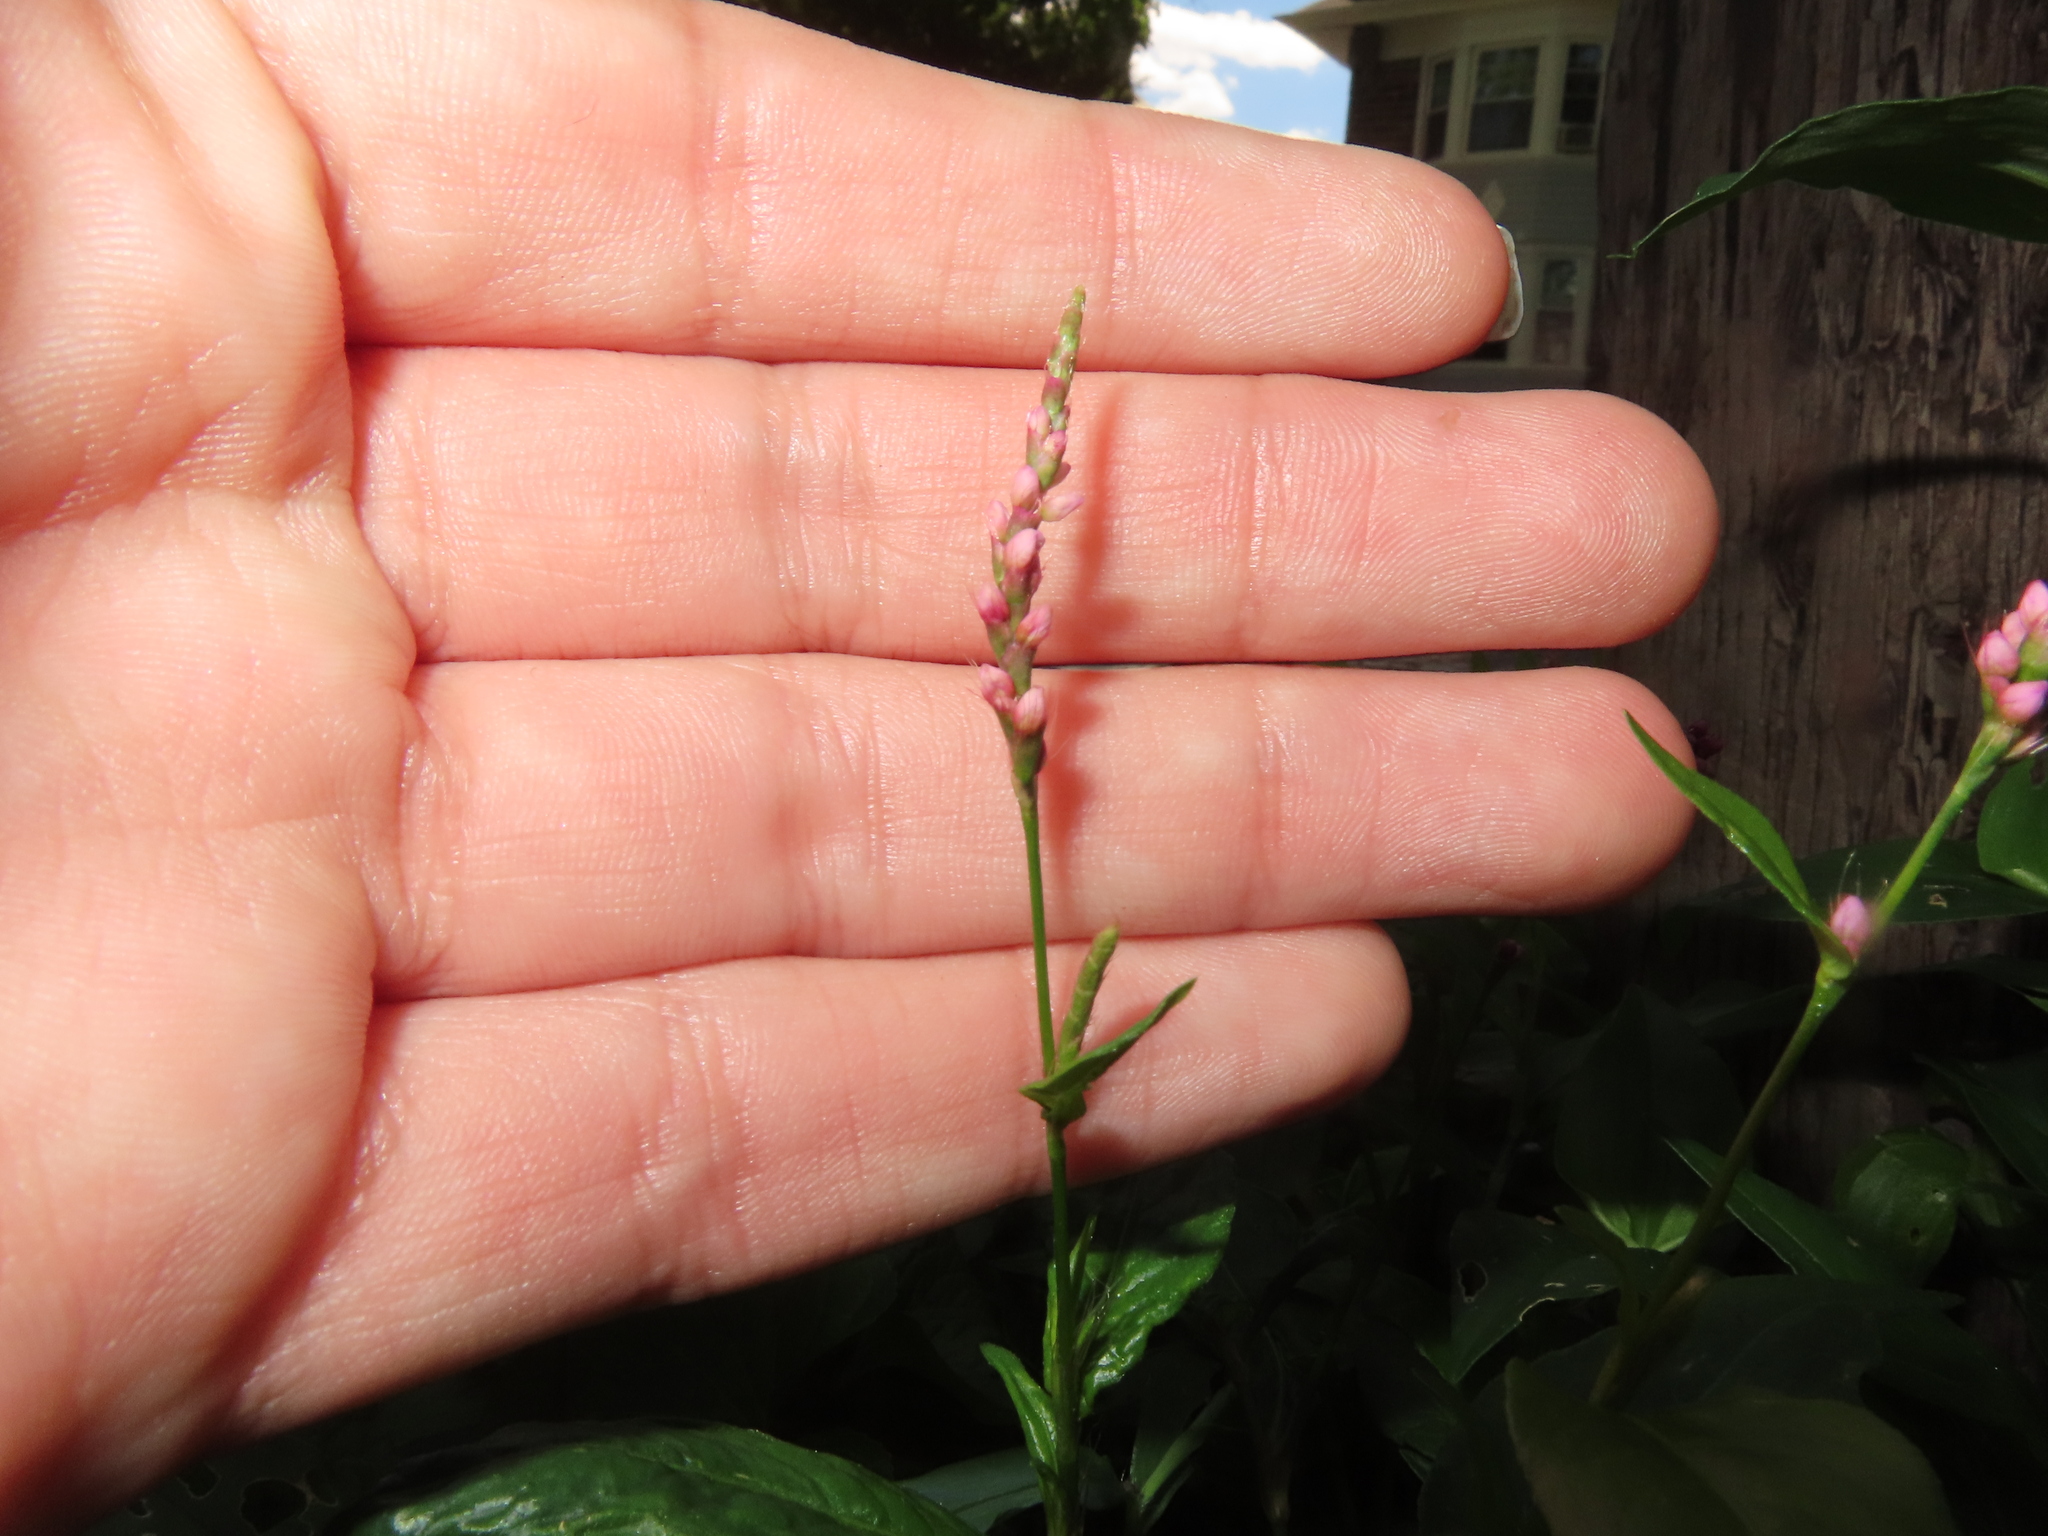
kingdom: Plantae
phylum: Tracheophyta
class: Magnoliopsida
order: Caryophyllales
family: Polygonaceae
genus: Persicaria
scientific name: Persicaria longiseta
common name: Bristly lady's-thumb
